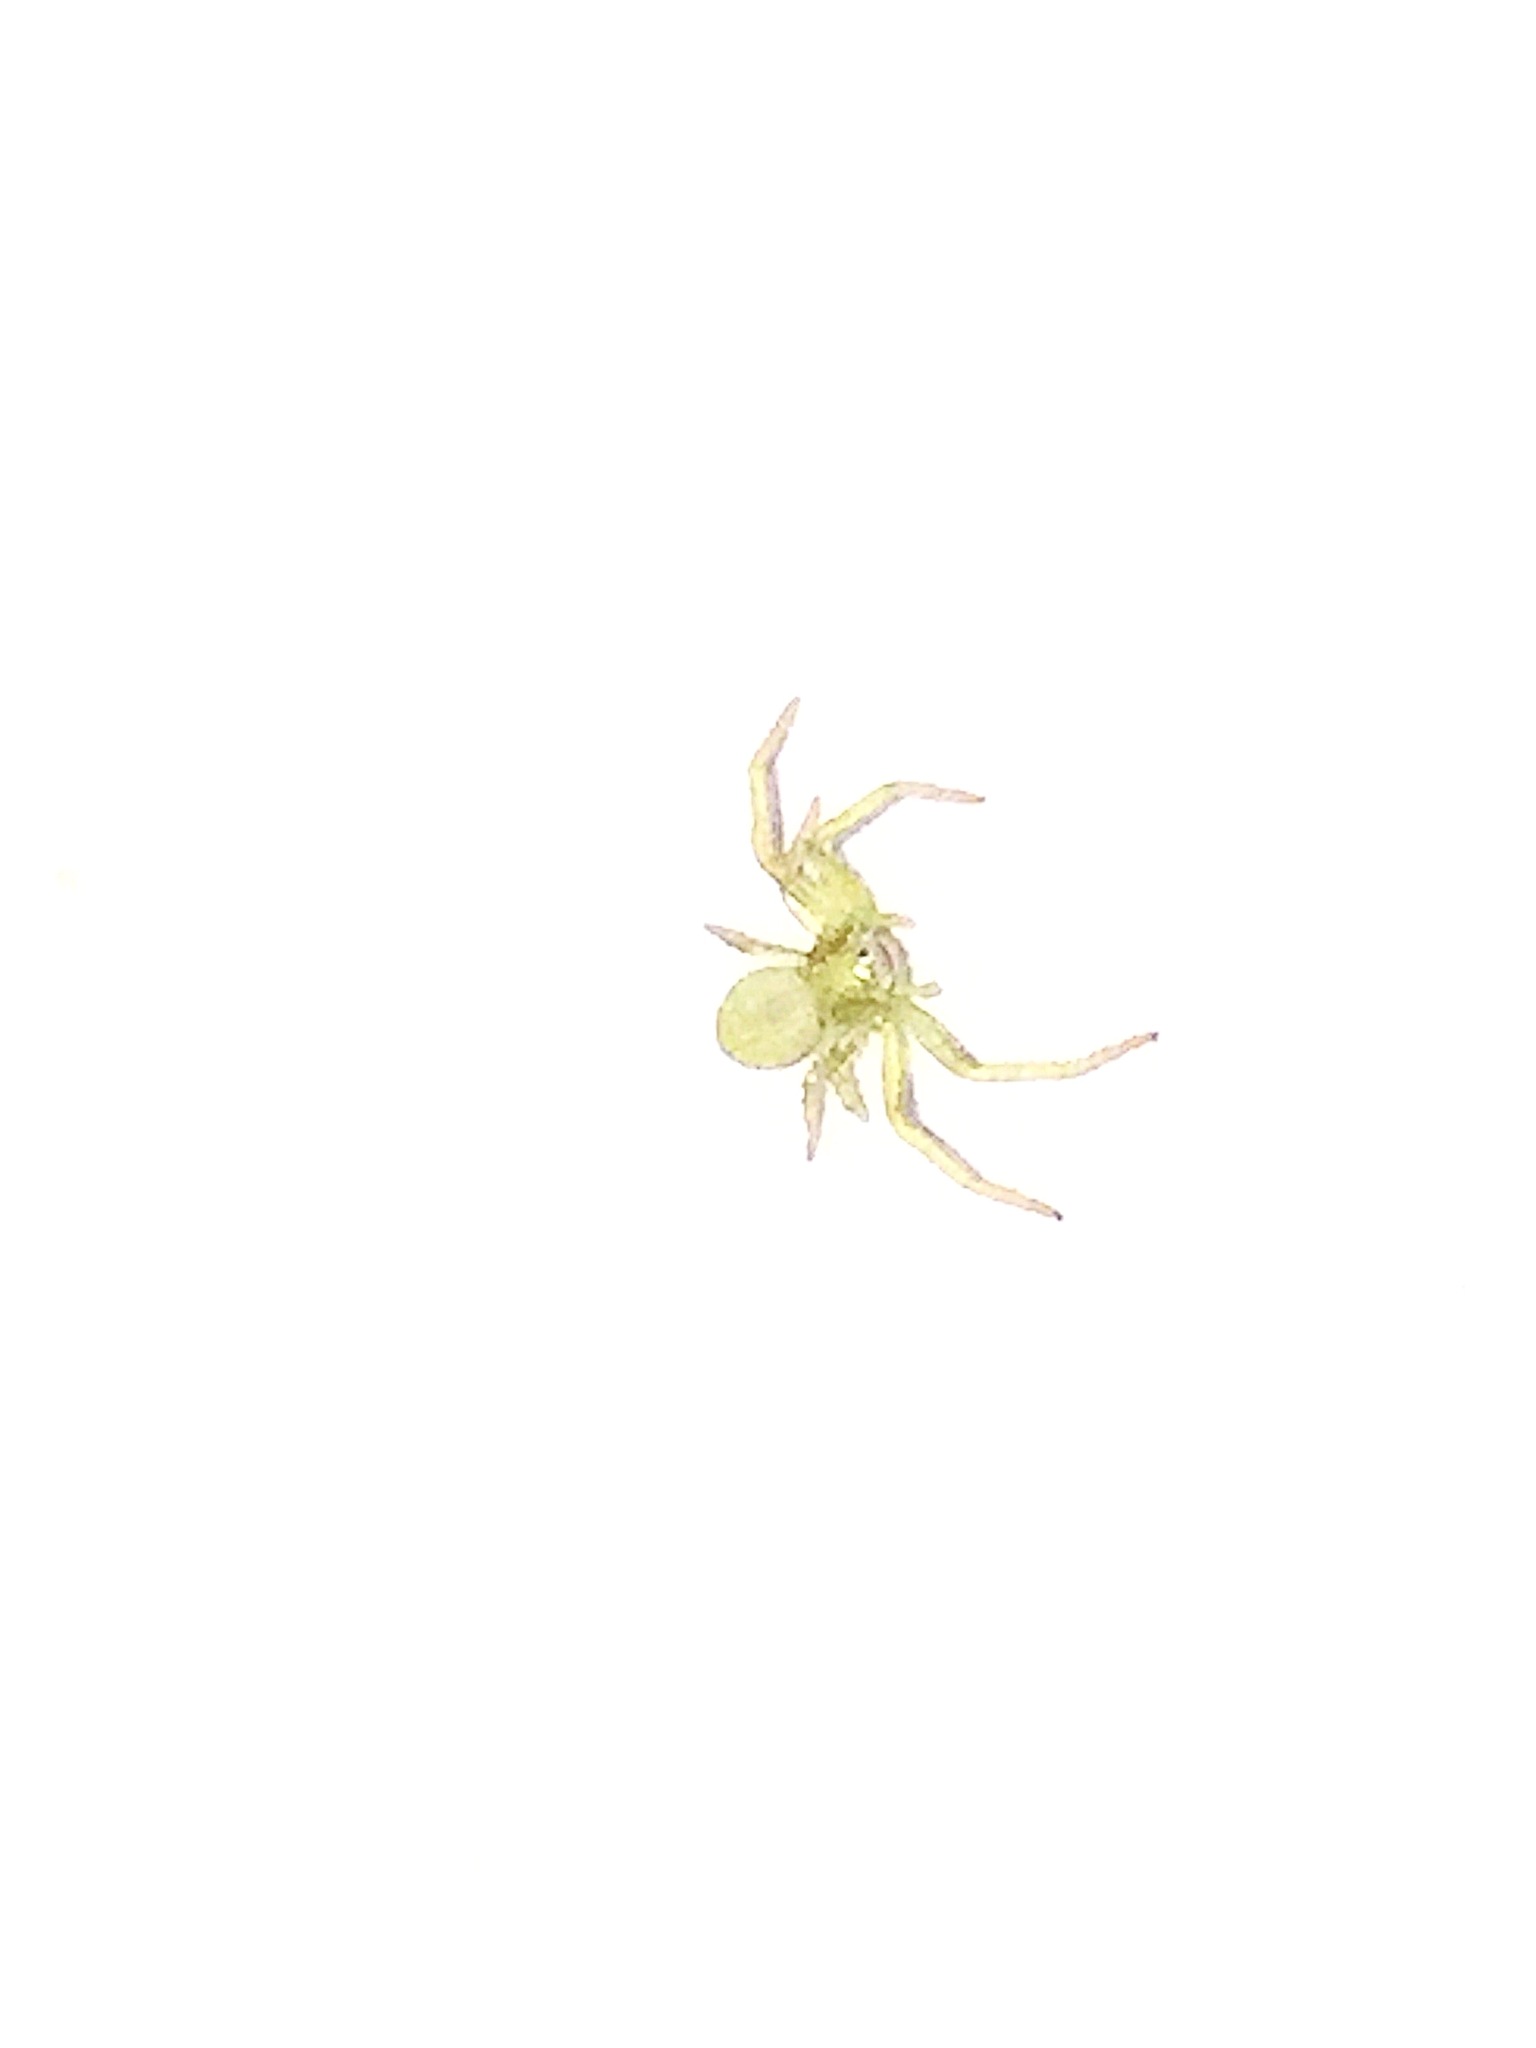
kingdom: Animalia
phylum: Arthropoda
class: Arachnida
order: Araneae
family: Thomisidae
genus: Misumessus
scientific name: Misumessus oblongus
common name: American green crab spider
